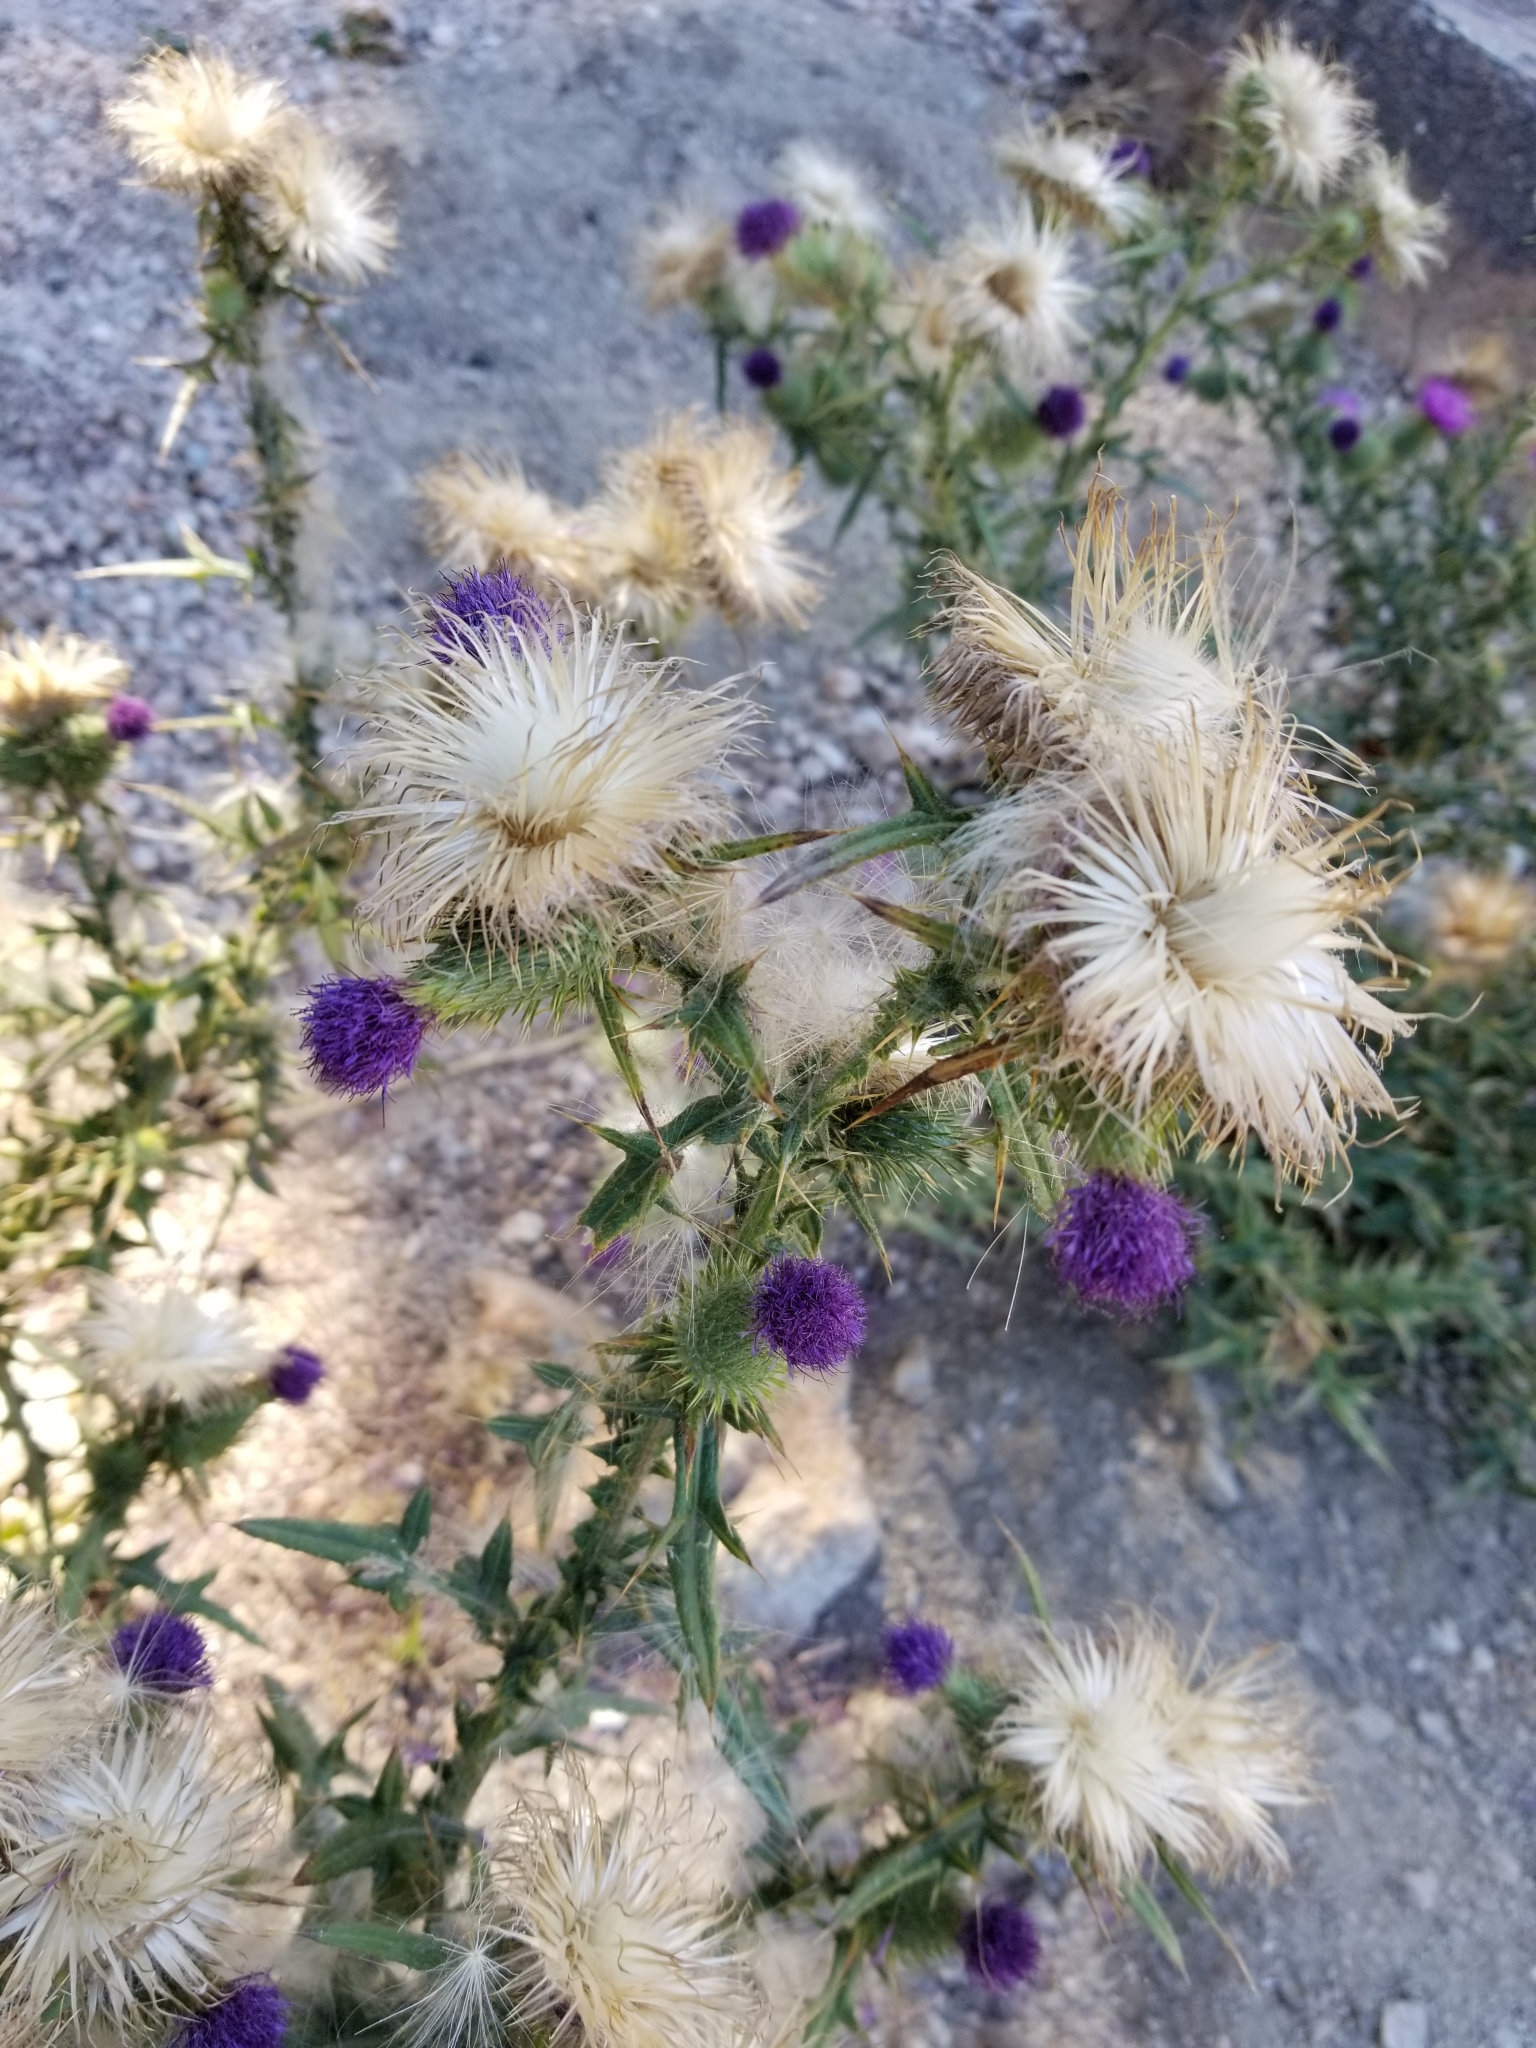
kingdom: Plantae
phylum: Tracheophyta
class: Magnoliopsida
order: Asterales
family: Asteraceae
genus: Cirsium
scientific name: Cirsium vulgare
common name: Bull thistle
